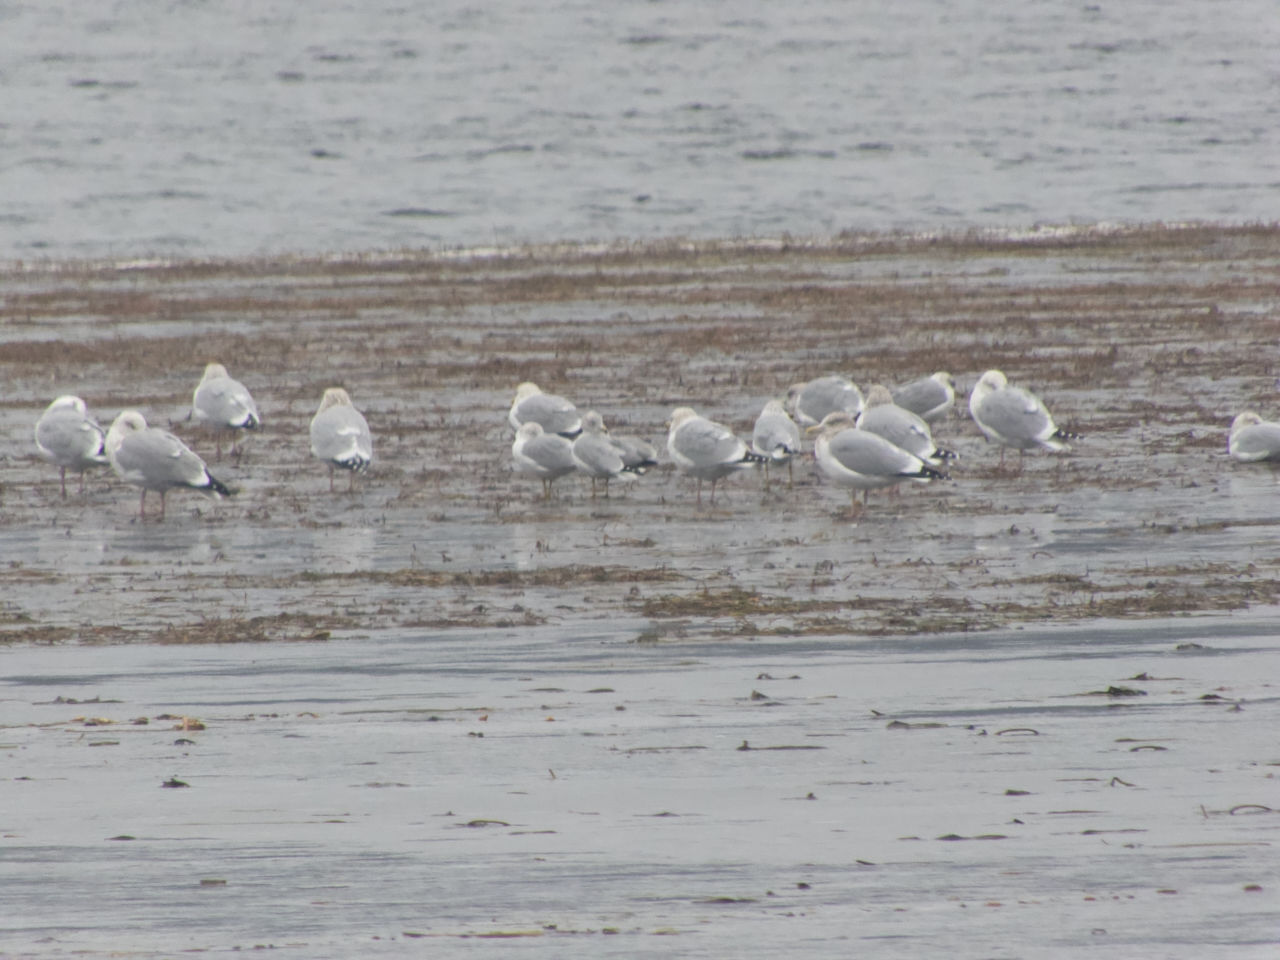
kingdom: Animalia
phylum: Chordata
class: Aves
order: Charadriiformes
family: Laridae
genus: Larus
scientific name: Larus argentatus
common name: Herring gull
